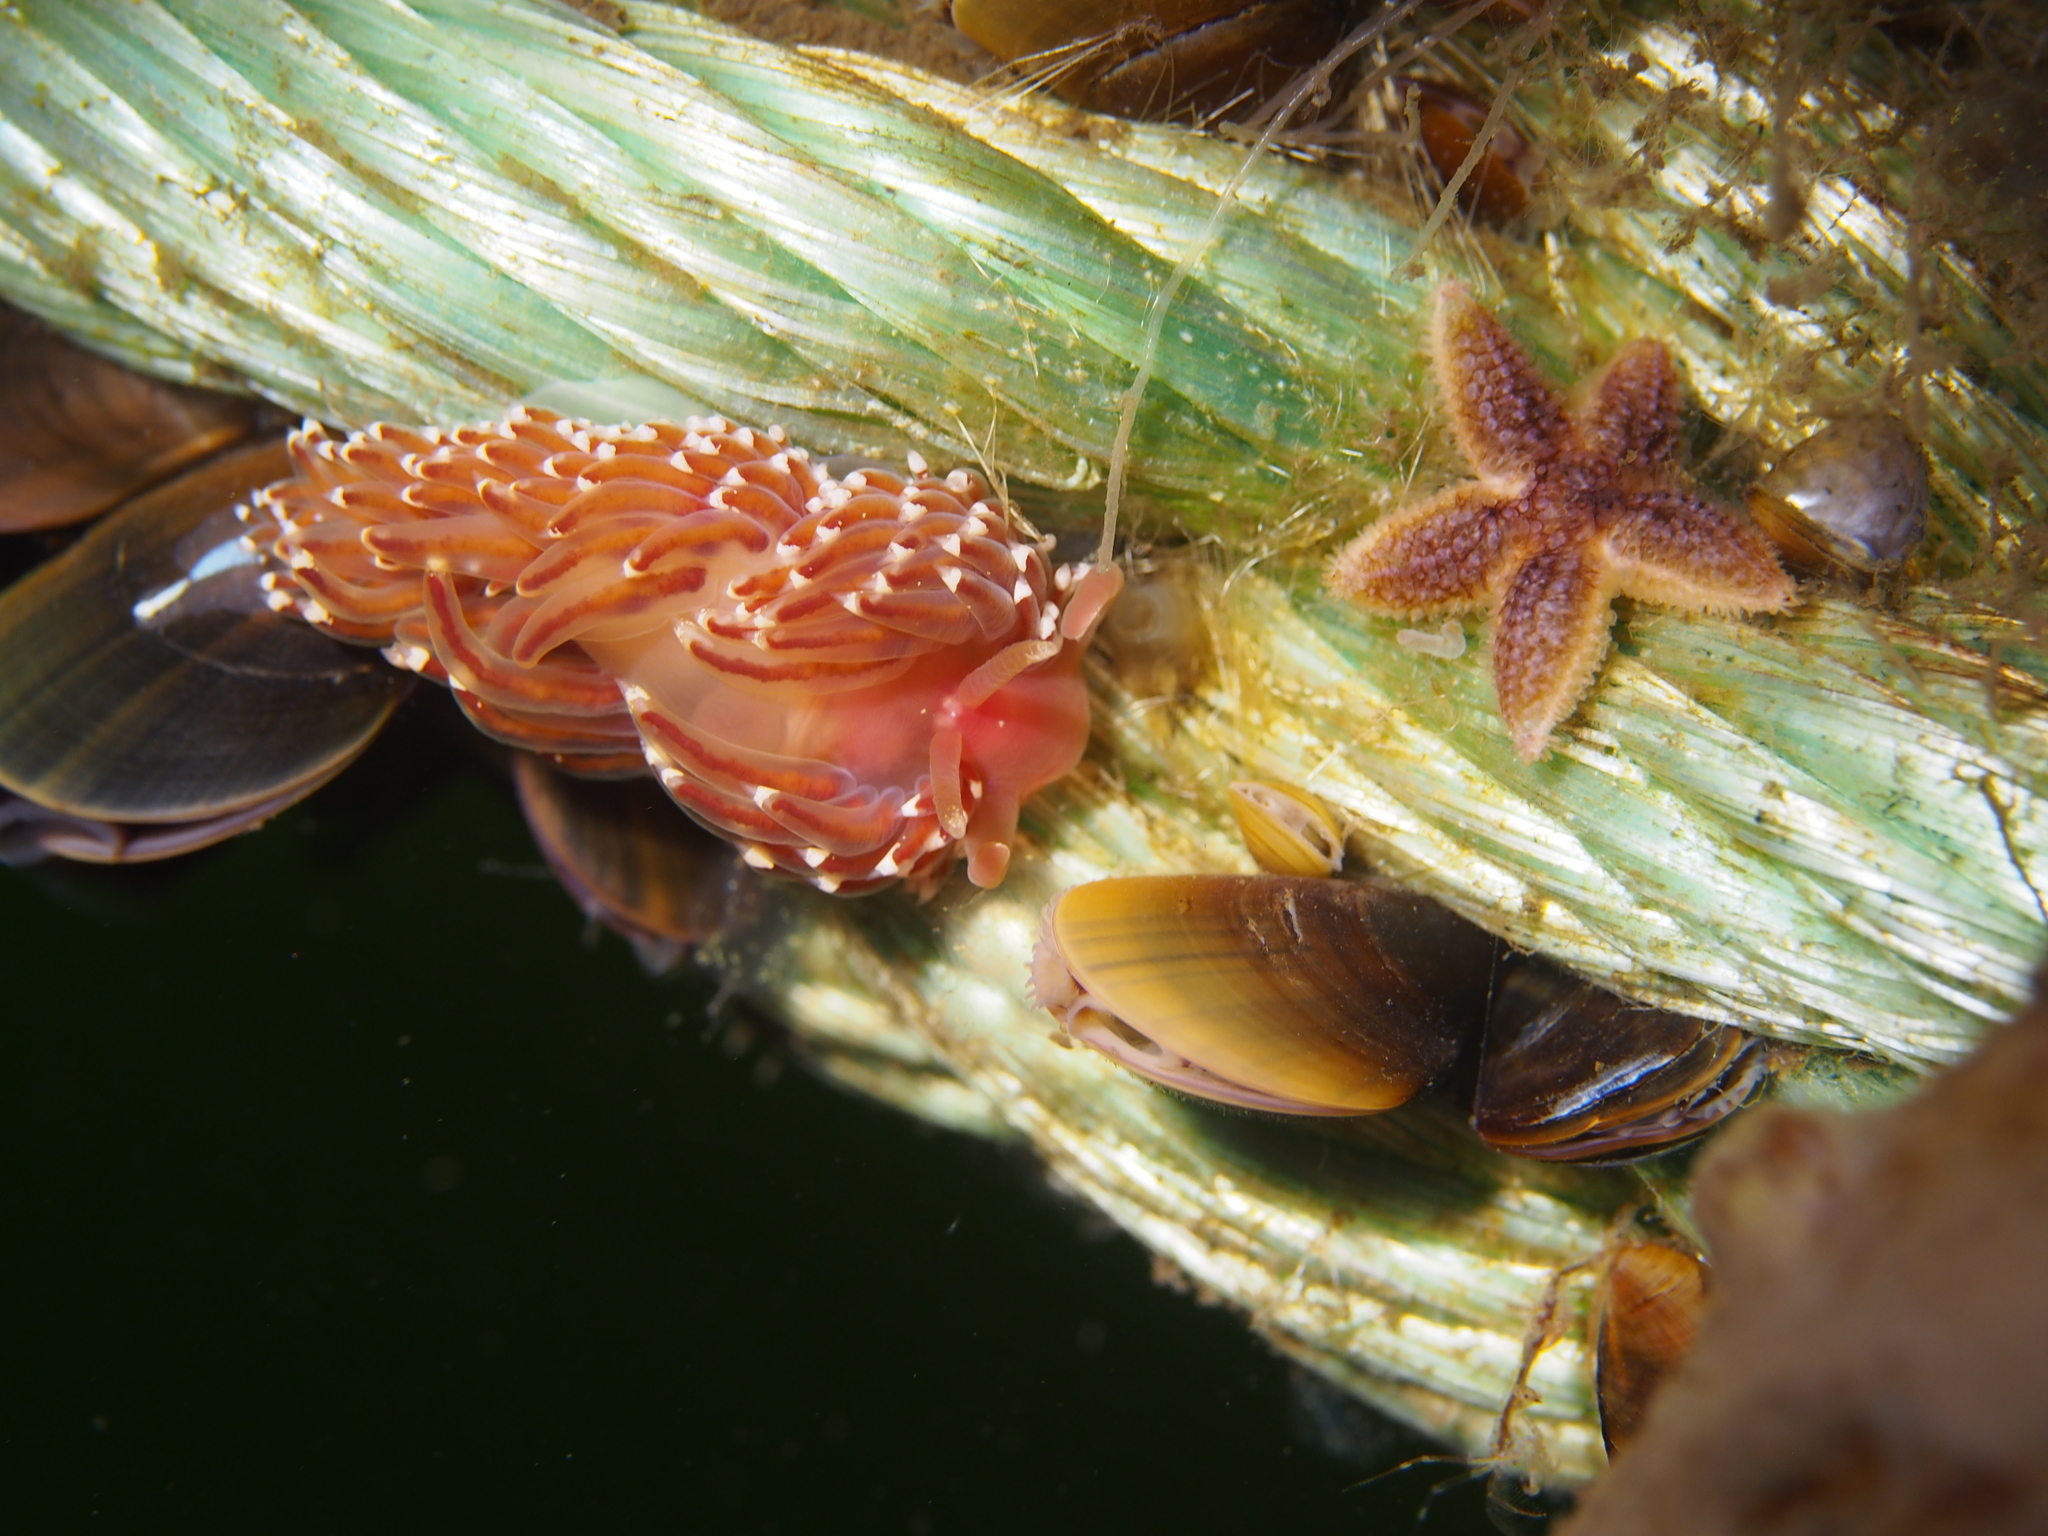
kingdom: Animalia
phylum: Mollusca
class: Gastropoda
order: Nudibranchia
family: Facelinidae
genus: Facelina
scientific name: Facelina bostoniensis
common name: Boston facelina
